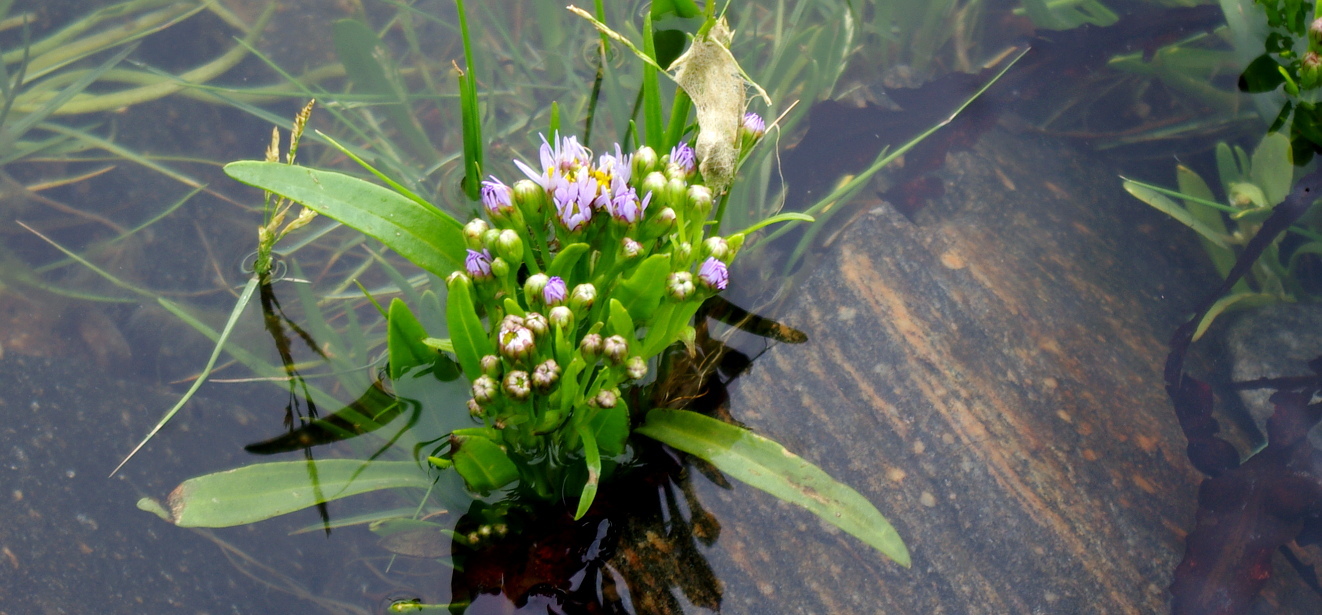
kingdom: Plantae
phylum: Tracheophyta
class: Magnoliopsida
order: Asterales
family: Asteraceae
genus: Tripolium
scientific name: Tripolium pannonicum
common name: Sea aster
